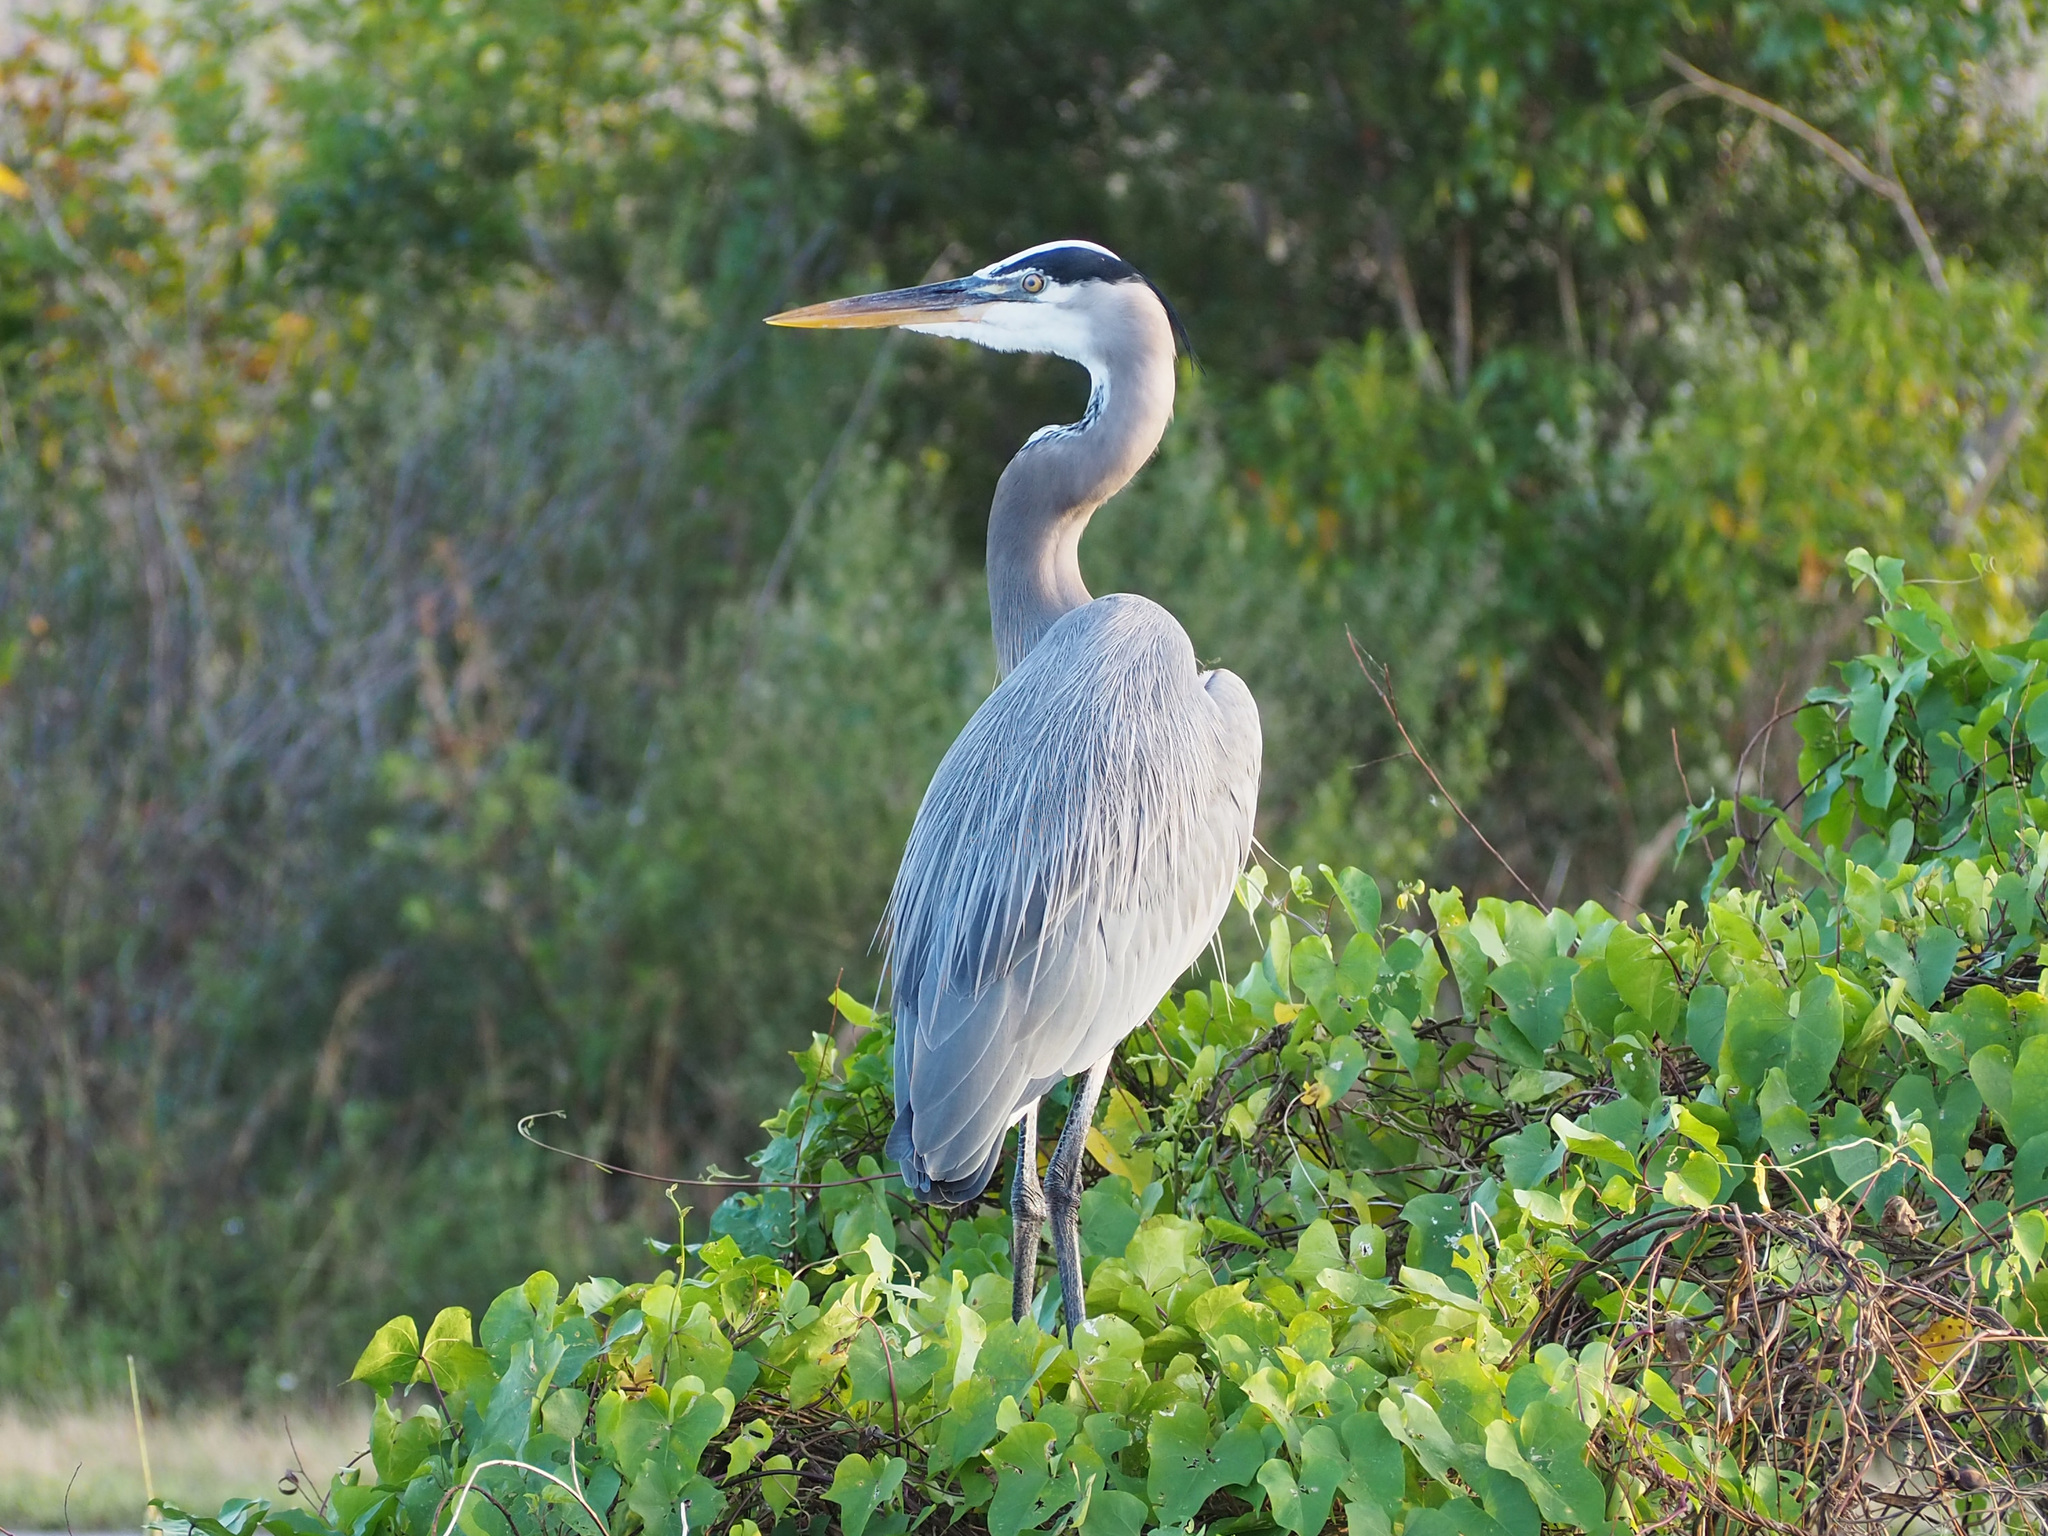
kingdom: Animalia
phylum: Chordata
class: Aves
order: Pelecaniformes
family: Ardeidae
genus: Ardea
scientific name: Ardea herodias
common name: Great blue heron
